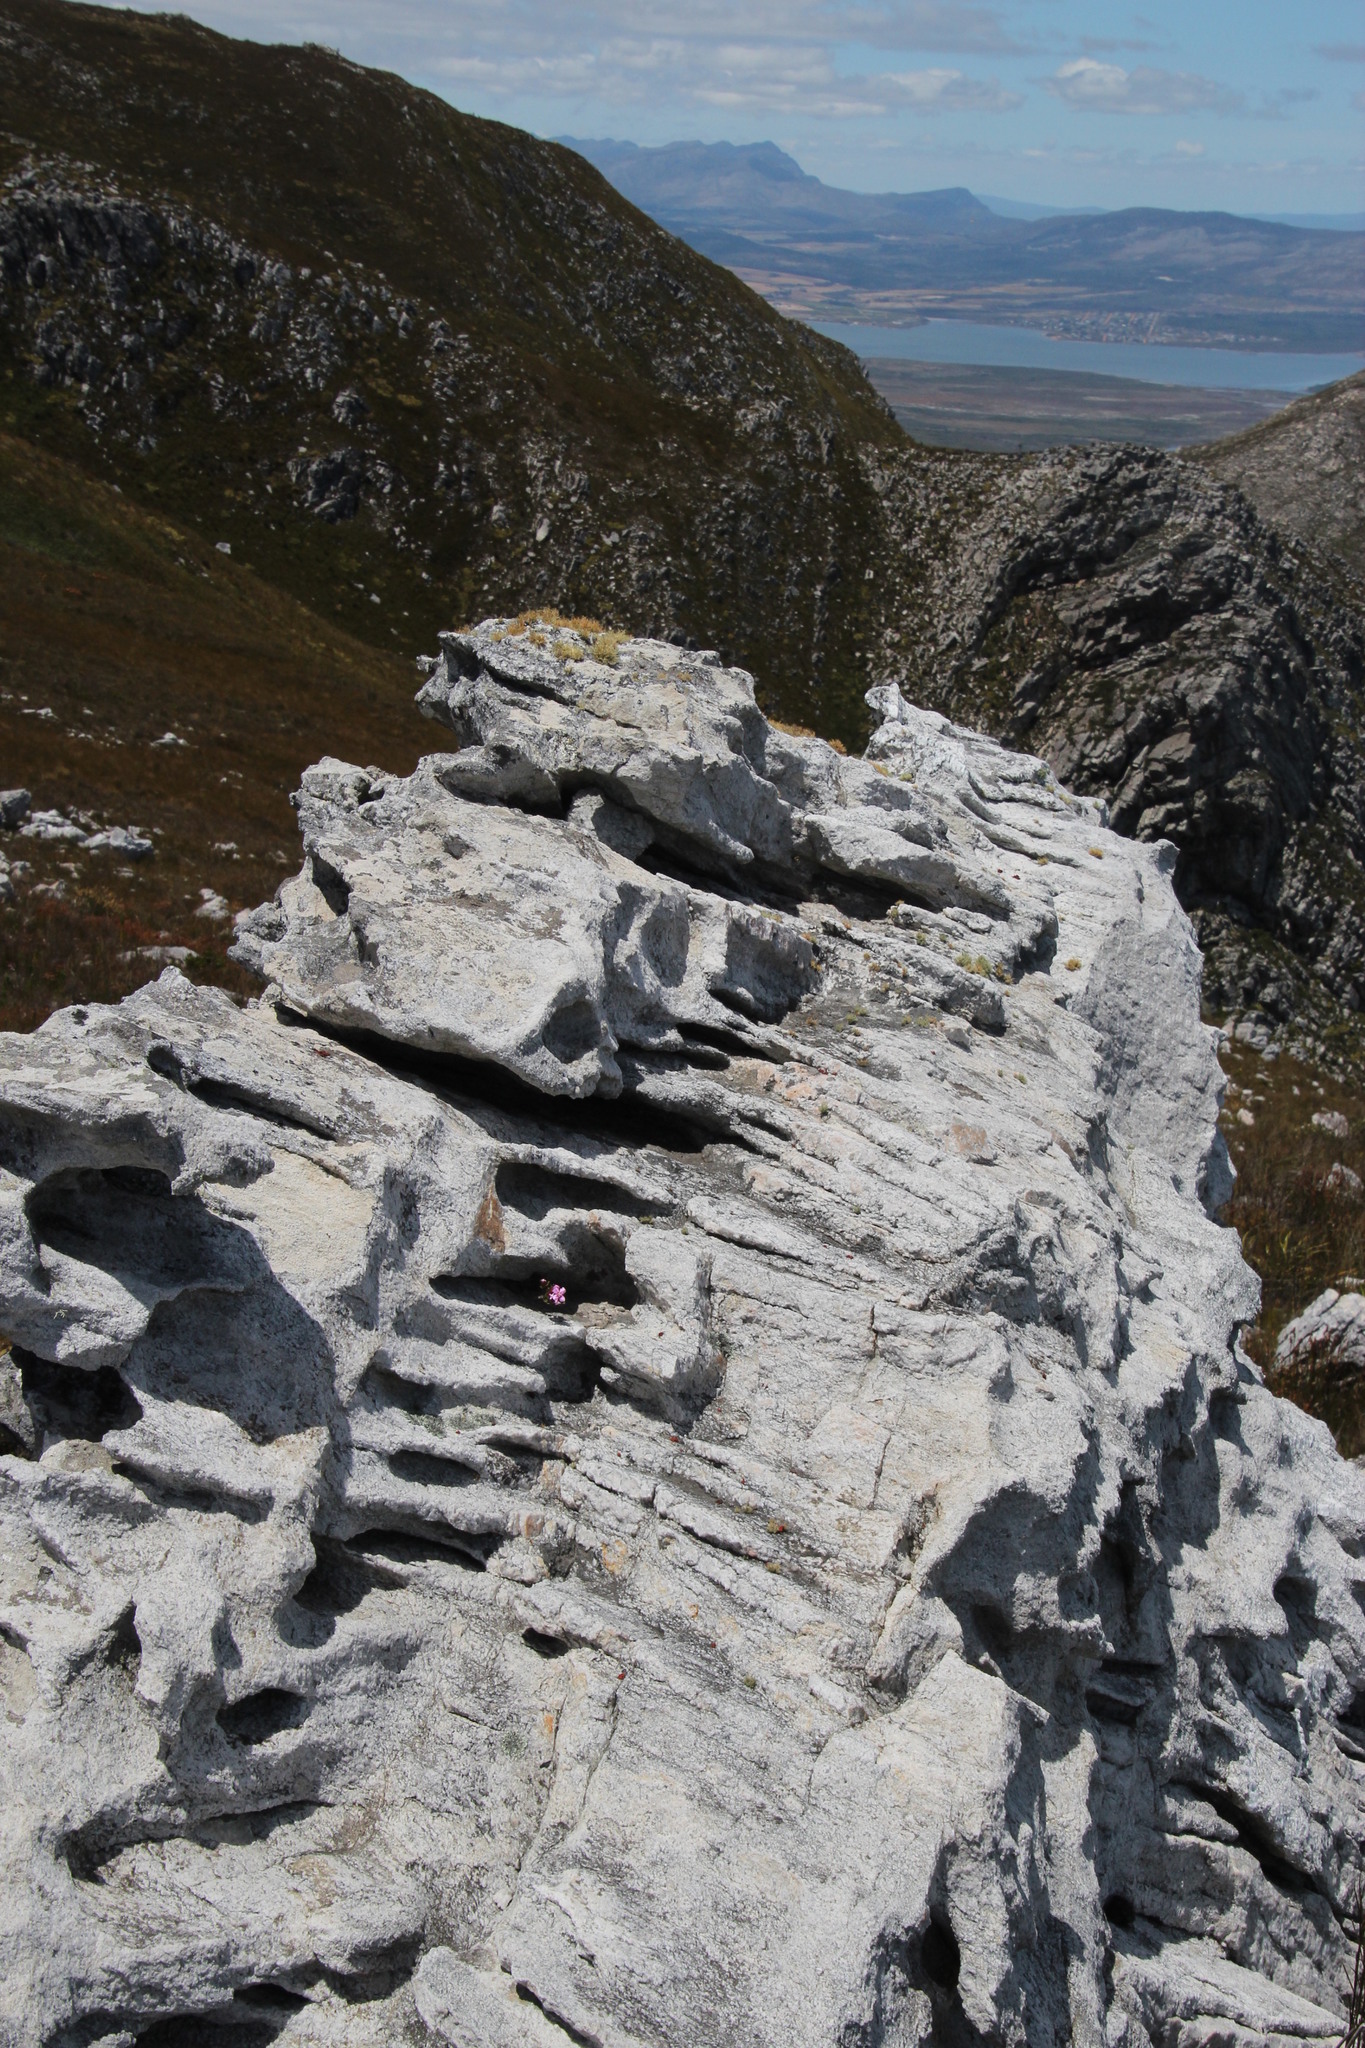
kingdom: Plantae
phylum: Tracheophyta
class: Magnoliopsida
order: Myrtales
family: Penaeaceae
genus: Sonderothamnus
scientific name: Sonderothamnus petraeus
